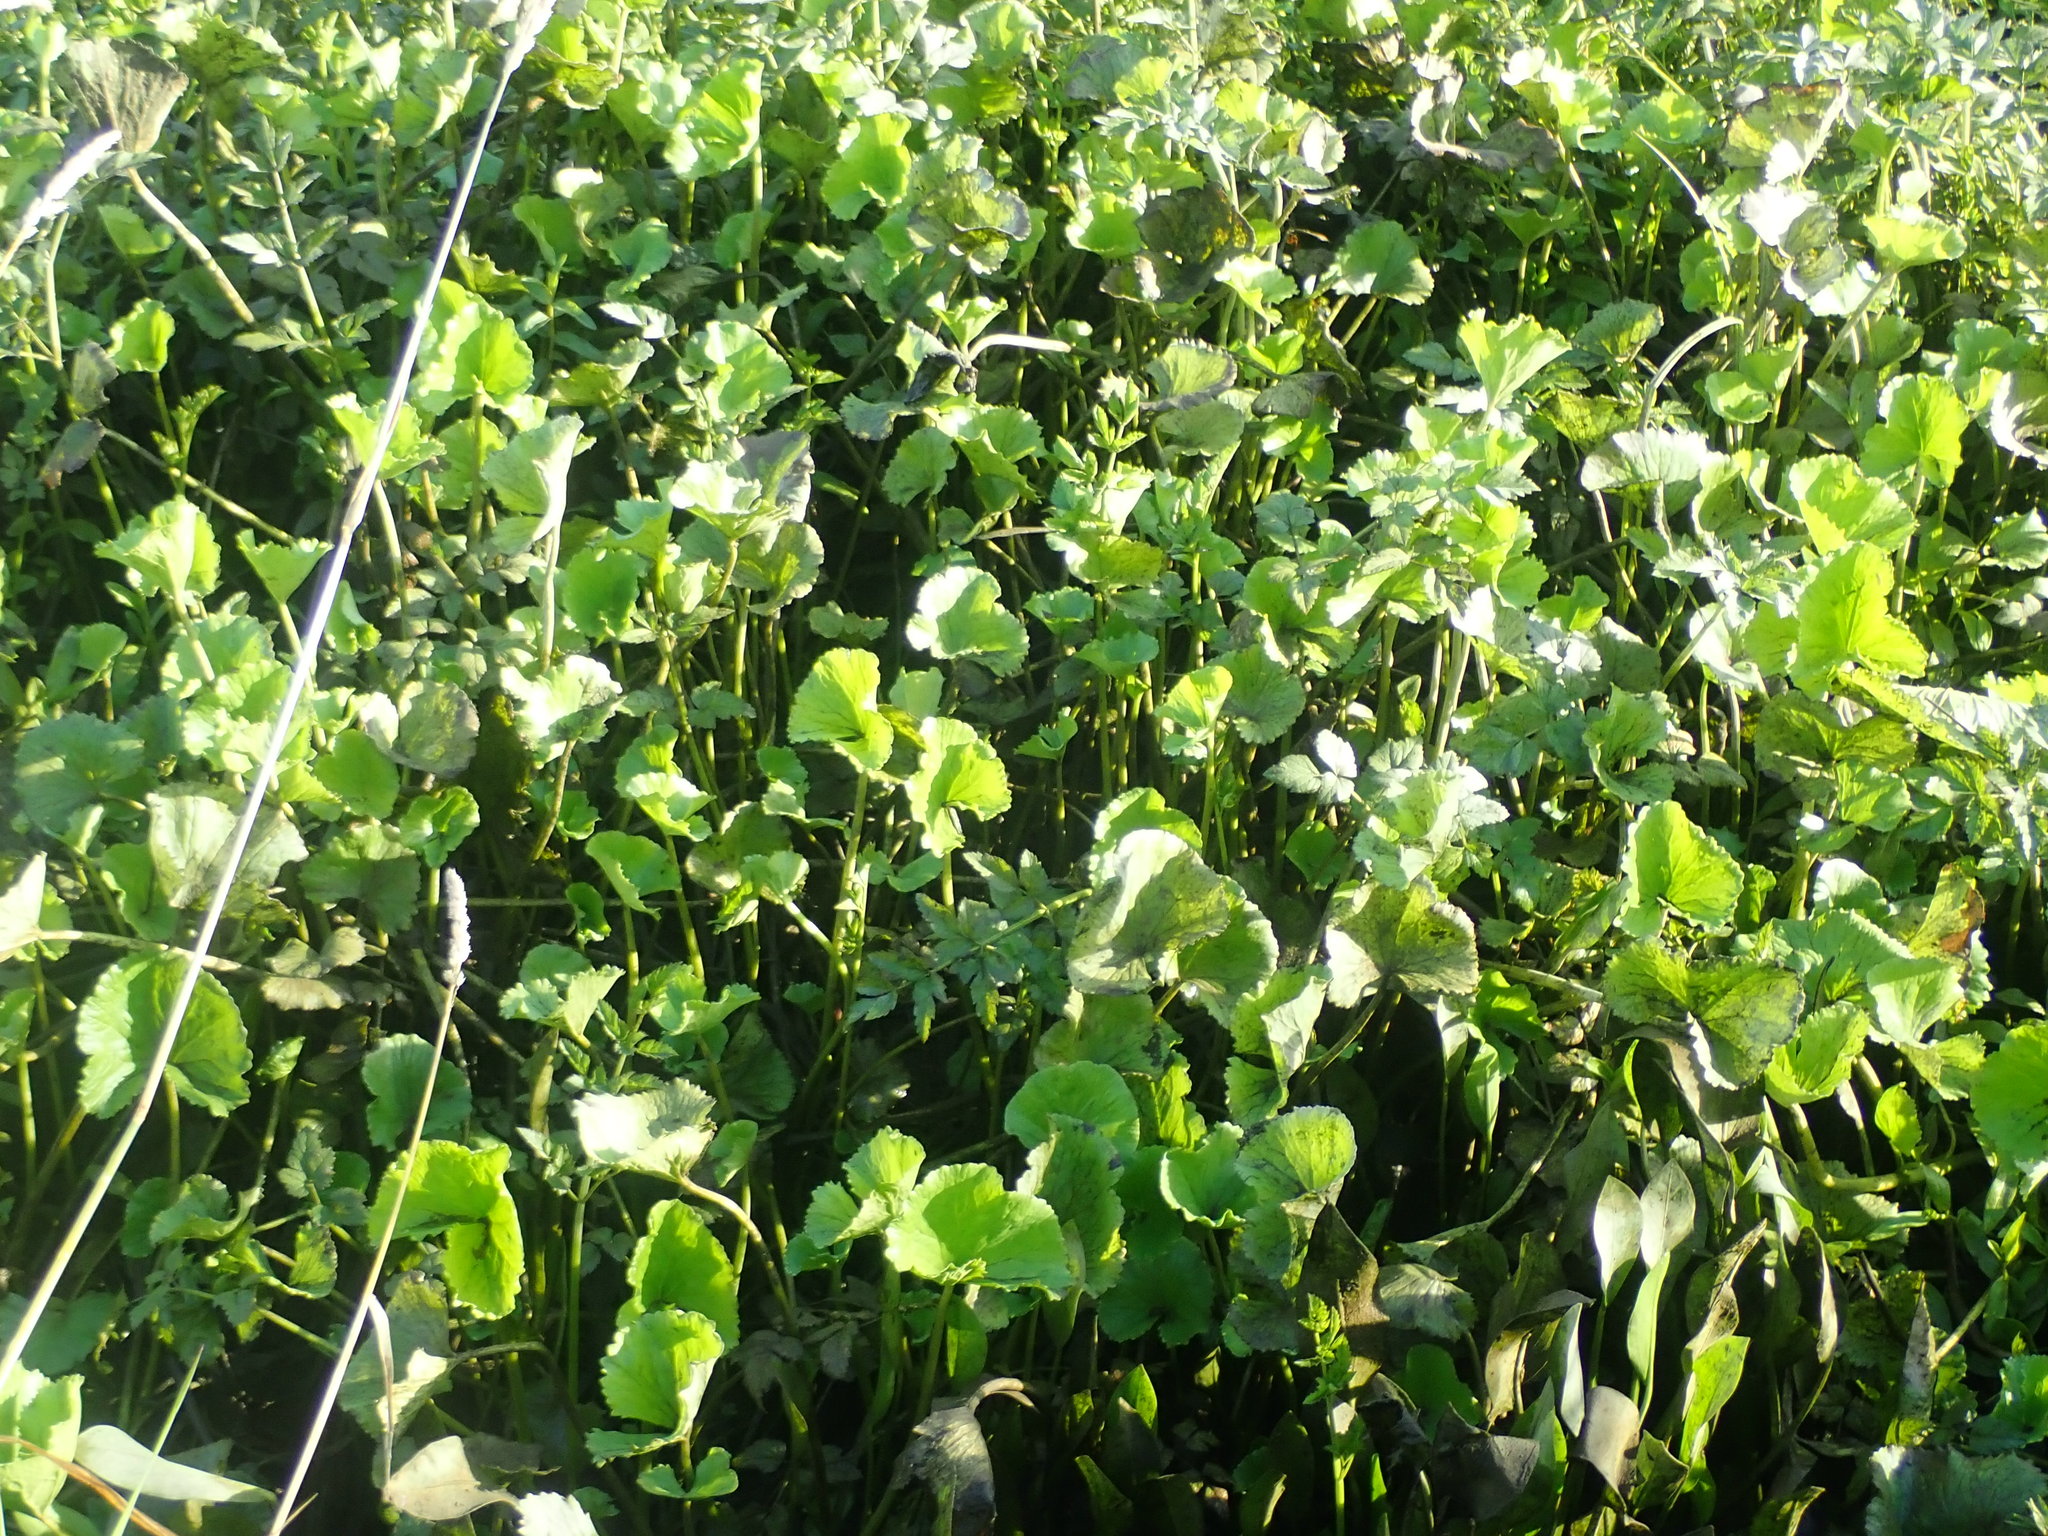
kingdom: Plantae
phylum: Tracheophyta
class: Magnoliopsida
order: Ranunculales
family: Ranunculaceae
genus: Caltha
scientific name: Caltha palustris
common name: Marsh marigold
